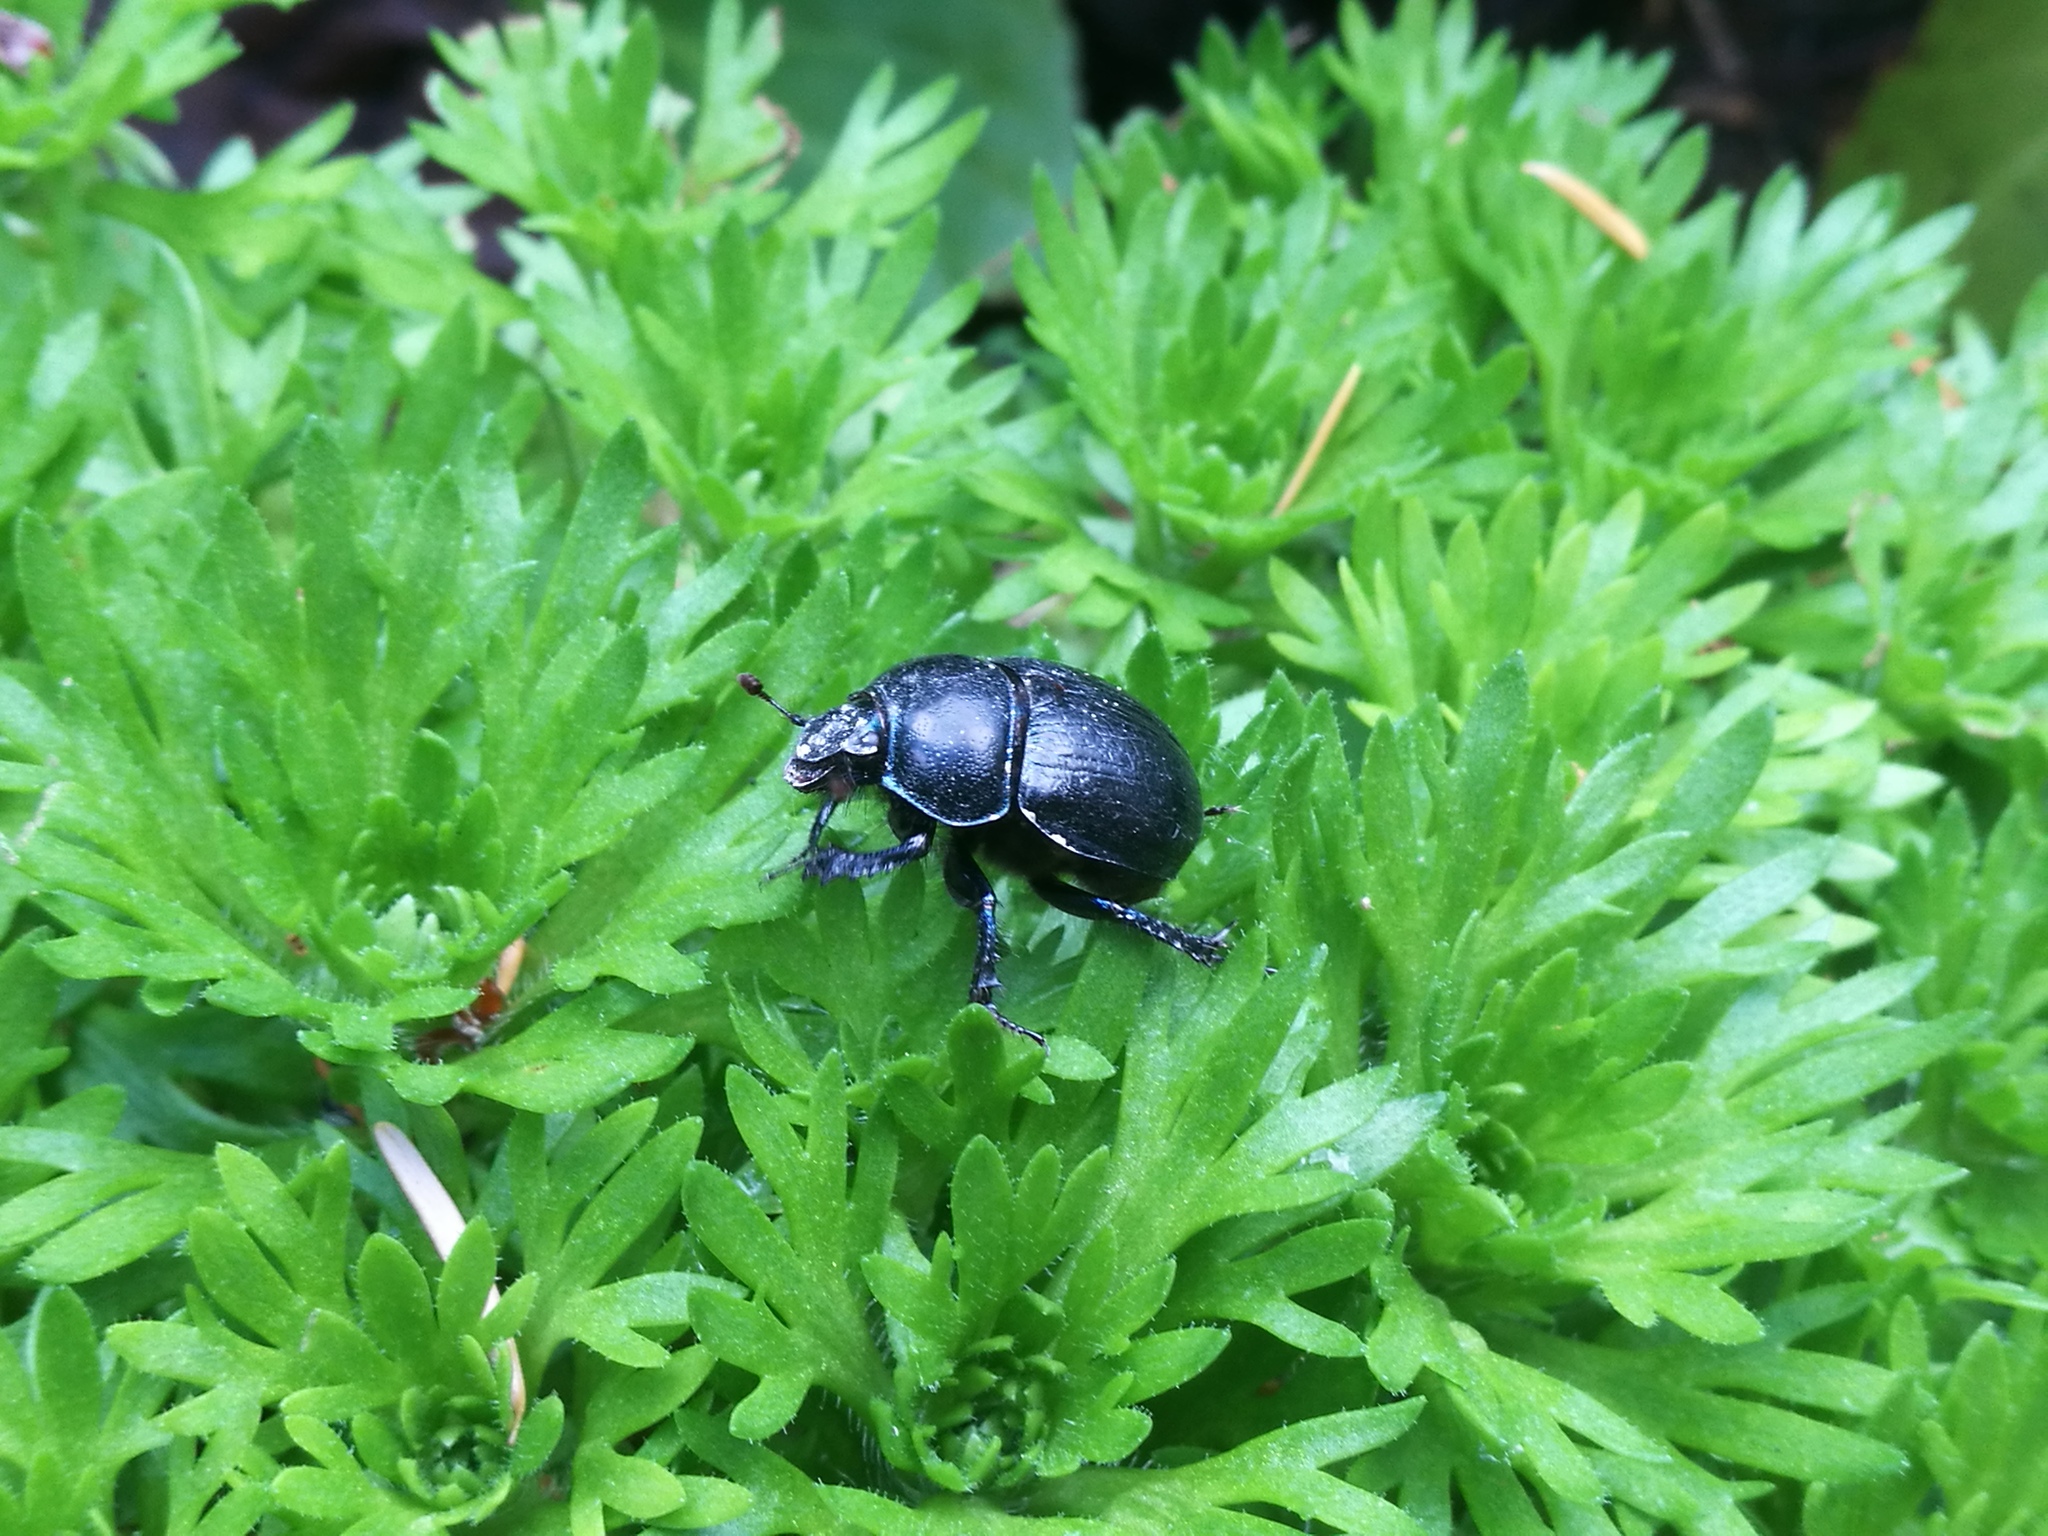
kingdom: Animalia
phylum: Arthropoda
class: Insecta
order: Coleoptera
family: Geotrupidae
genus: Anoplotrupes
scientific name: Anoplotrupes stercorosus
